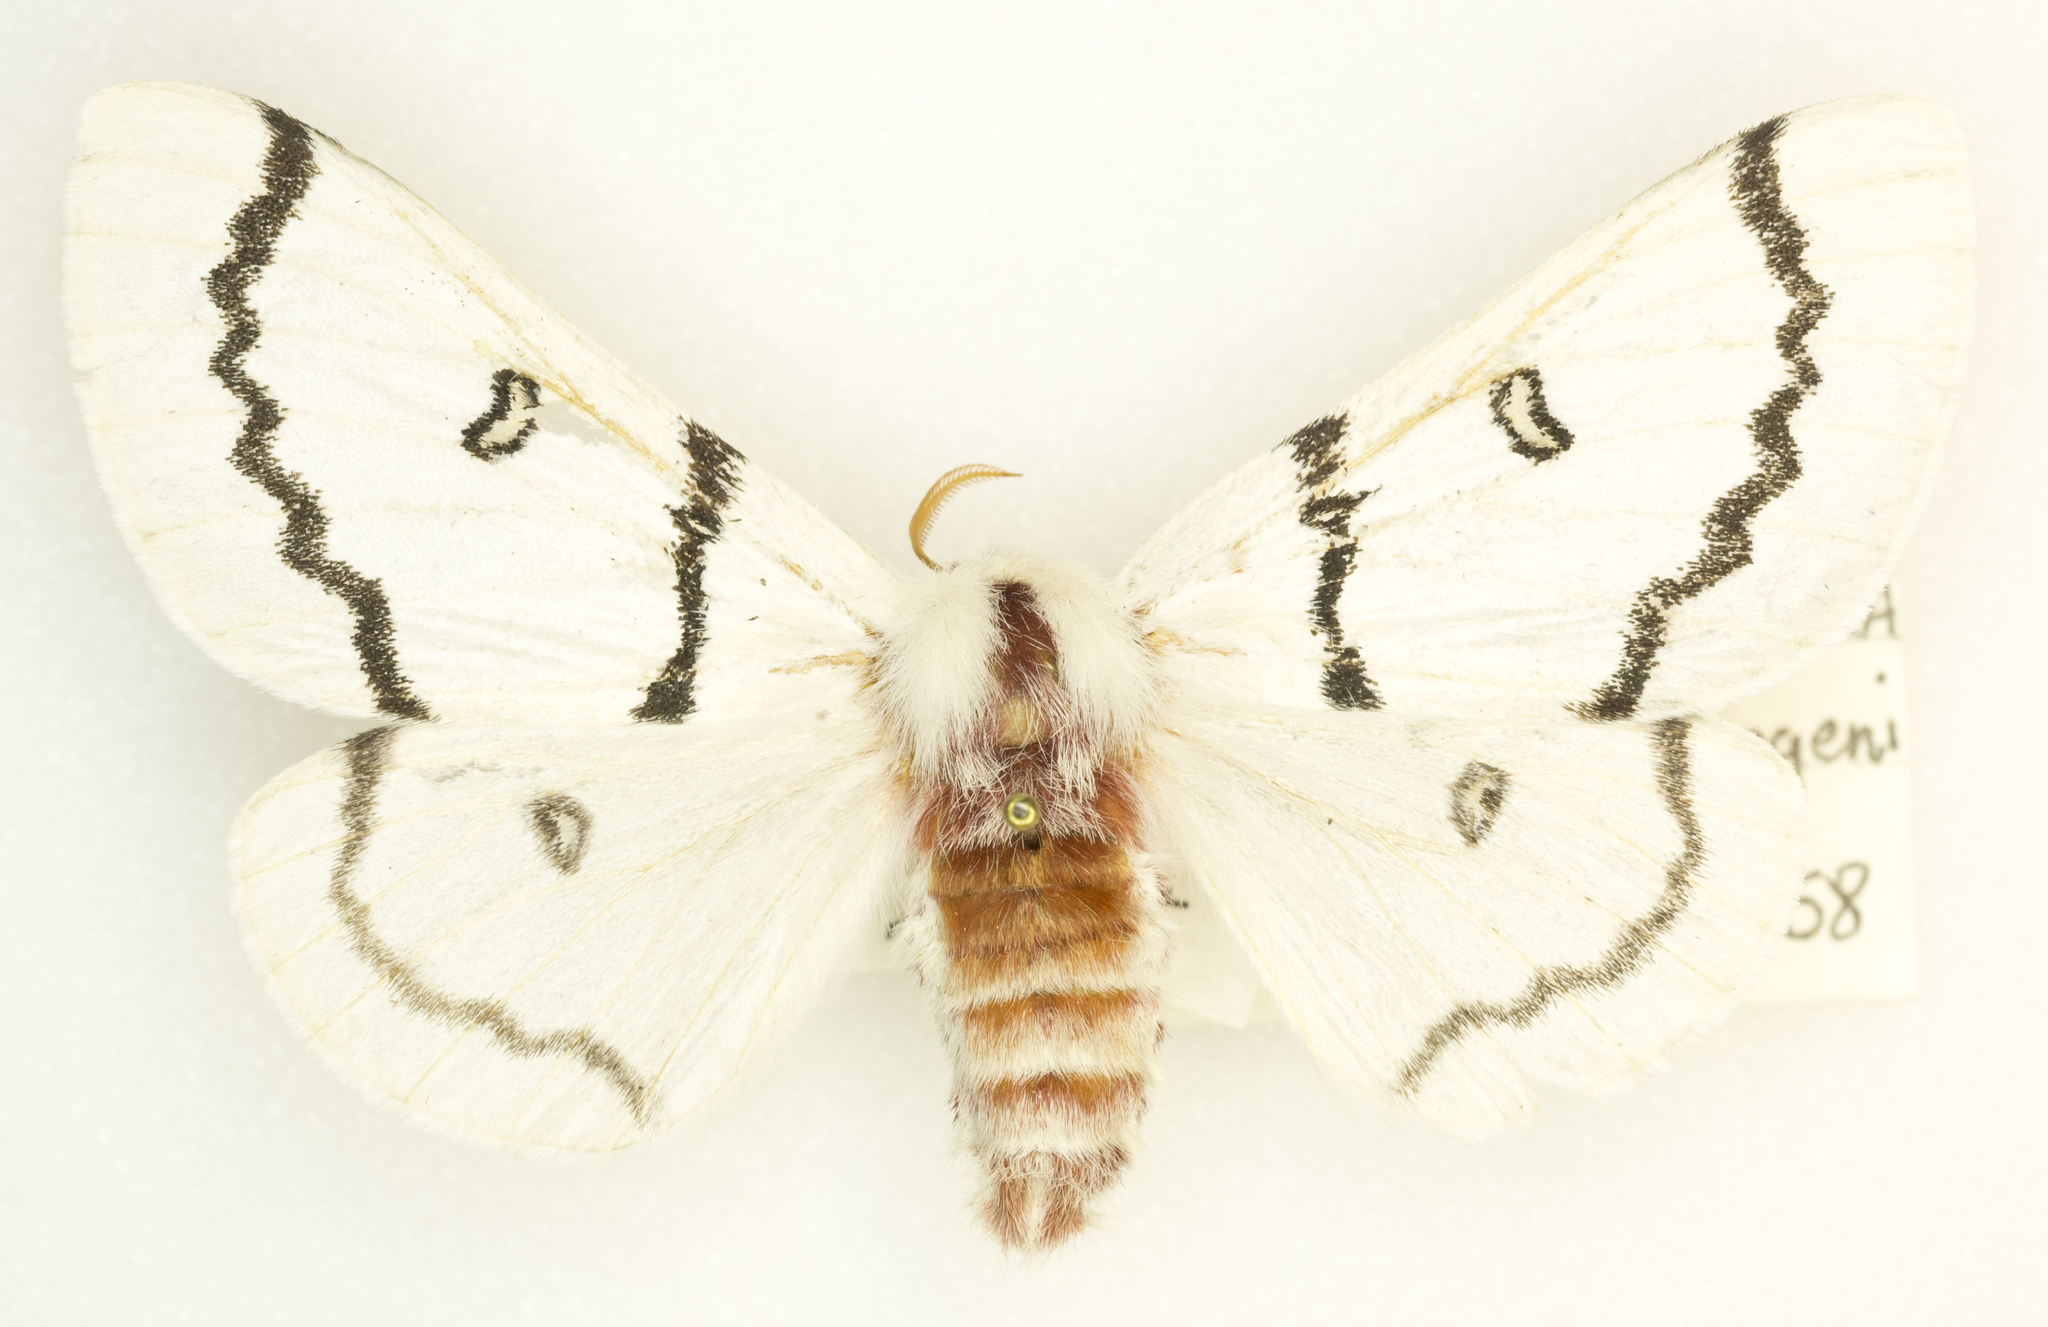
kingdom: Animalia
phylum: Arthropoda
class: Insecta
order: Lepidoptera
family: Saturniidae
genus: Hemileuca
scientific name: Hemileuca neumoegeni
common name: Neumoegen's buckmoth
